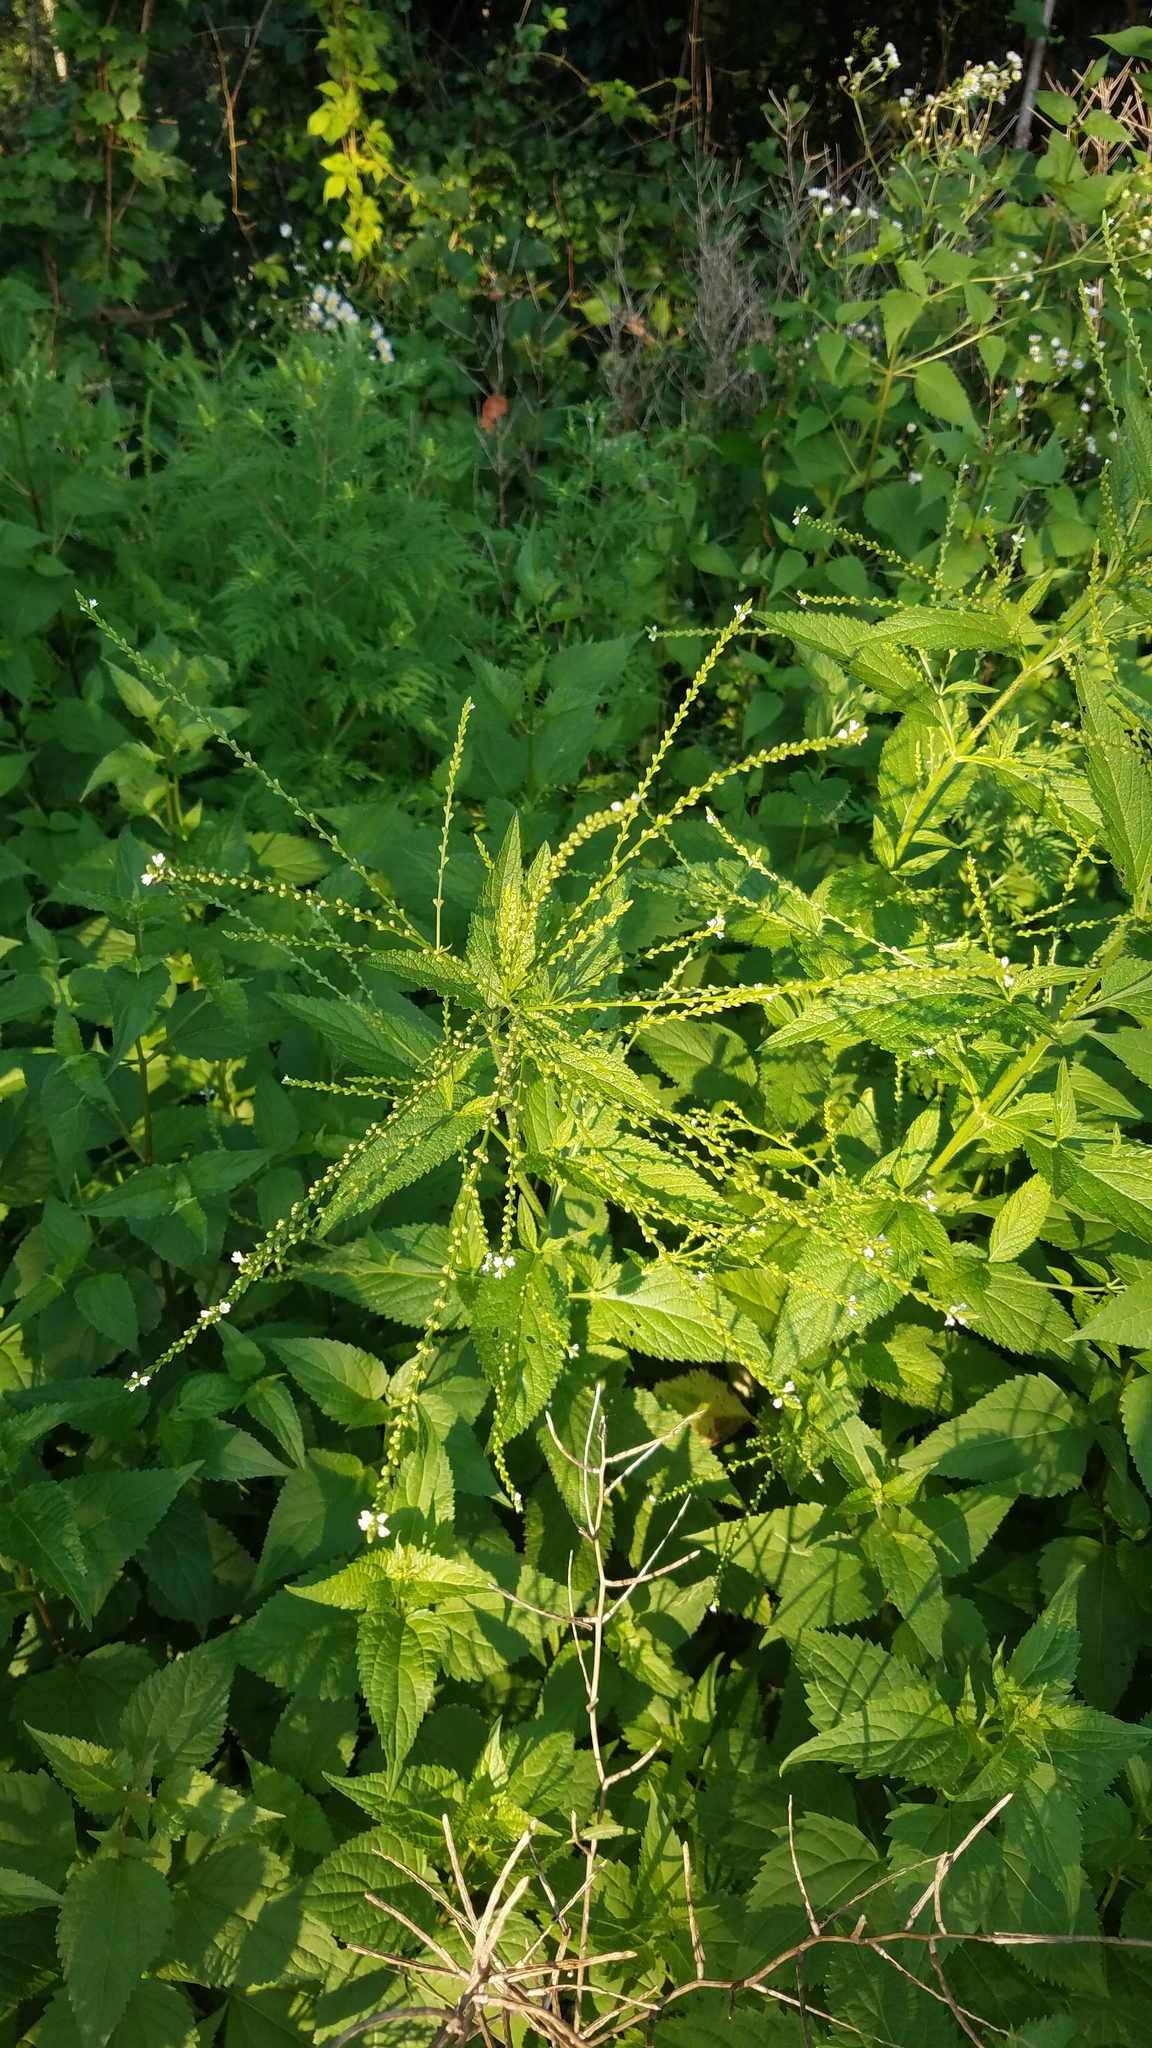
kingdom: Plantae
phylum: Tracheophyta
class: Magnoliopsida
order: Lamiales
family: Verbenaceae
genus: Verbena
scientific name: Verbena urticifolia
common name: Nettle-leaved vervain
